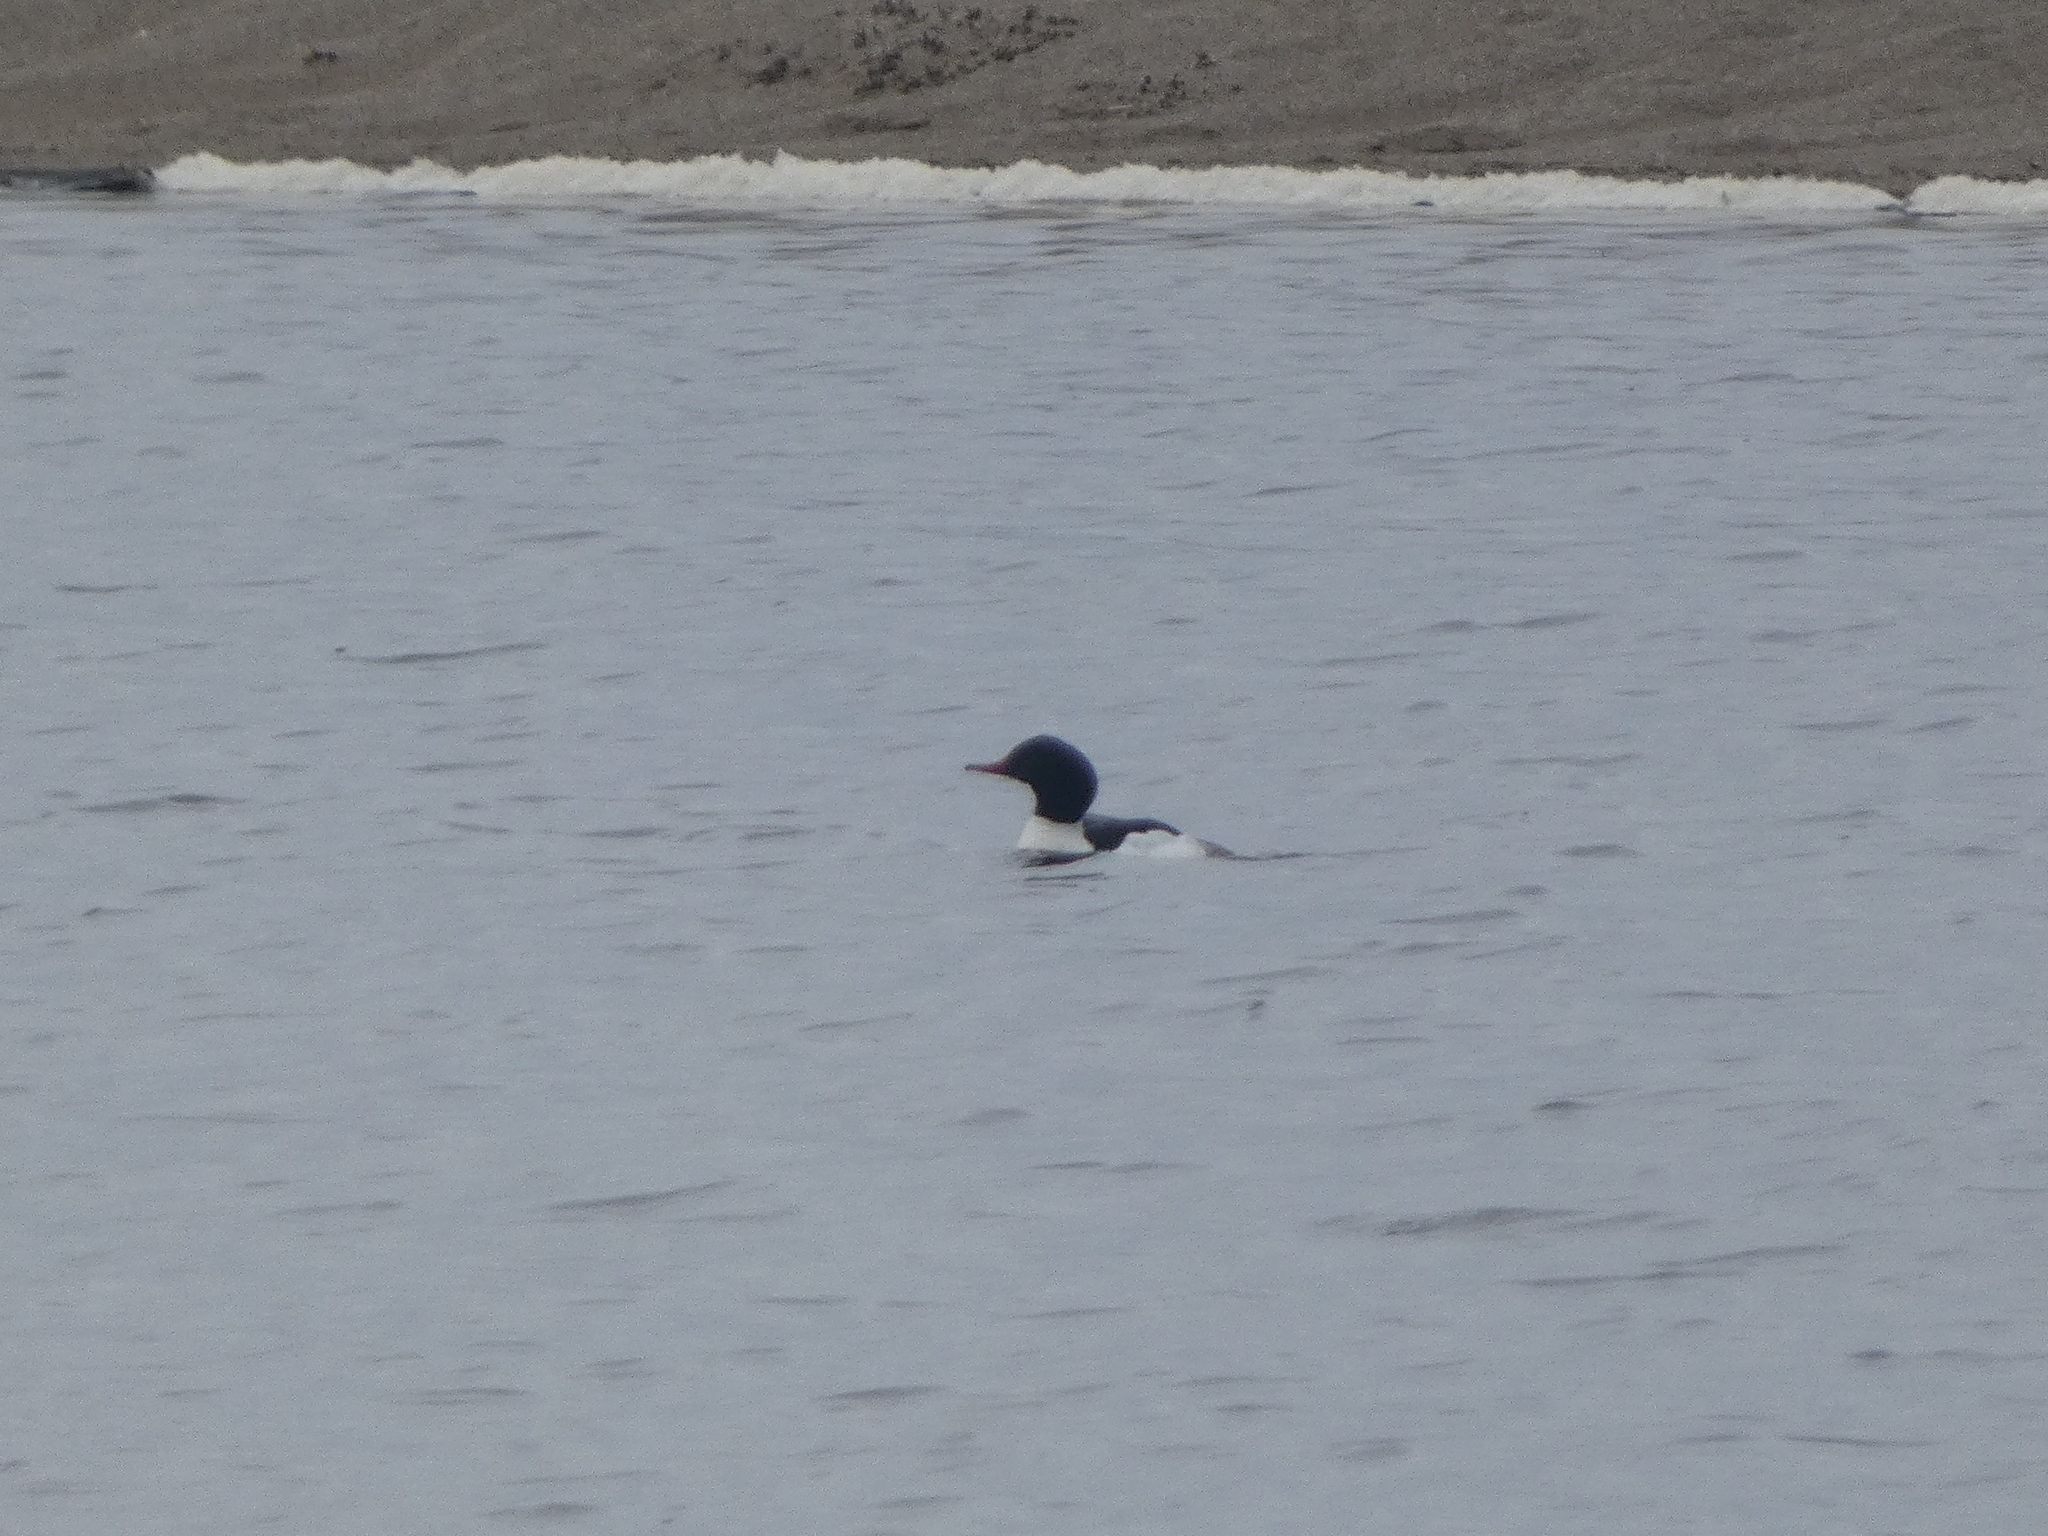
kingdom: Animalia
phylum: Chordata
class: Aves
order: Anseriformes
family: Anatidae
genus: Mergus
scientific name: Mergus merganser
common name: Common merganser
